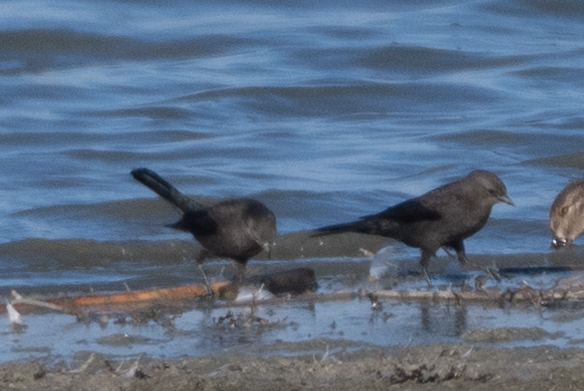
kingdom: Animalia
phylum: Chordata
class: Aves
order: Passeriformes
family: Icteridae
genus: Euphagus
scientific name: Euphagus cyanocephalus
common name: Brewer's blackbird
